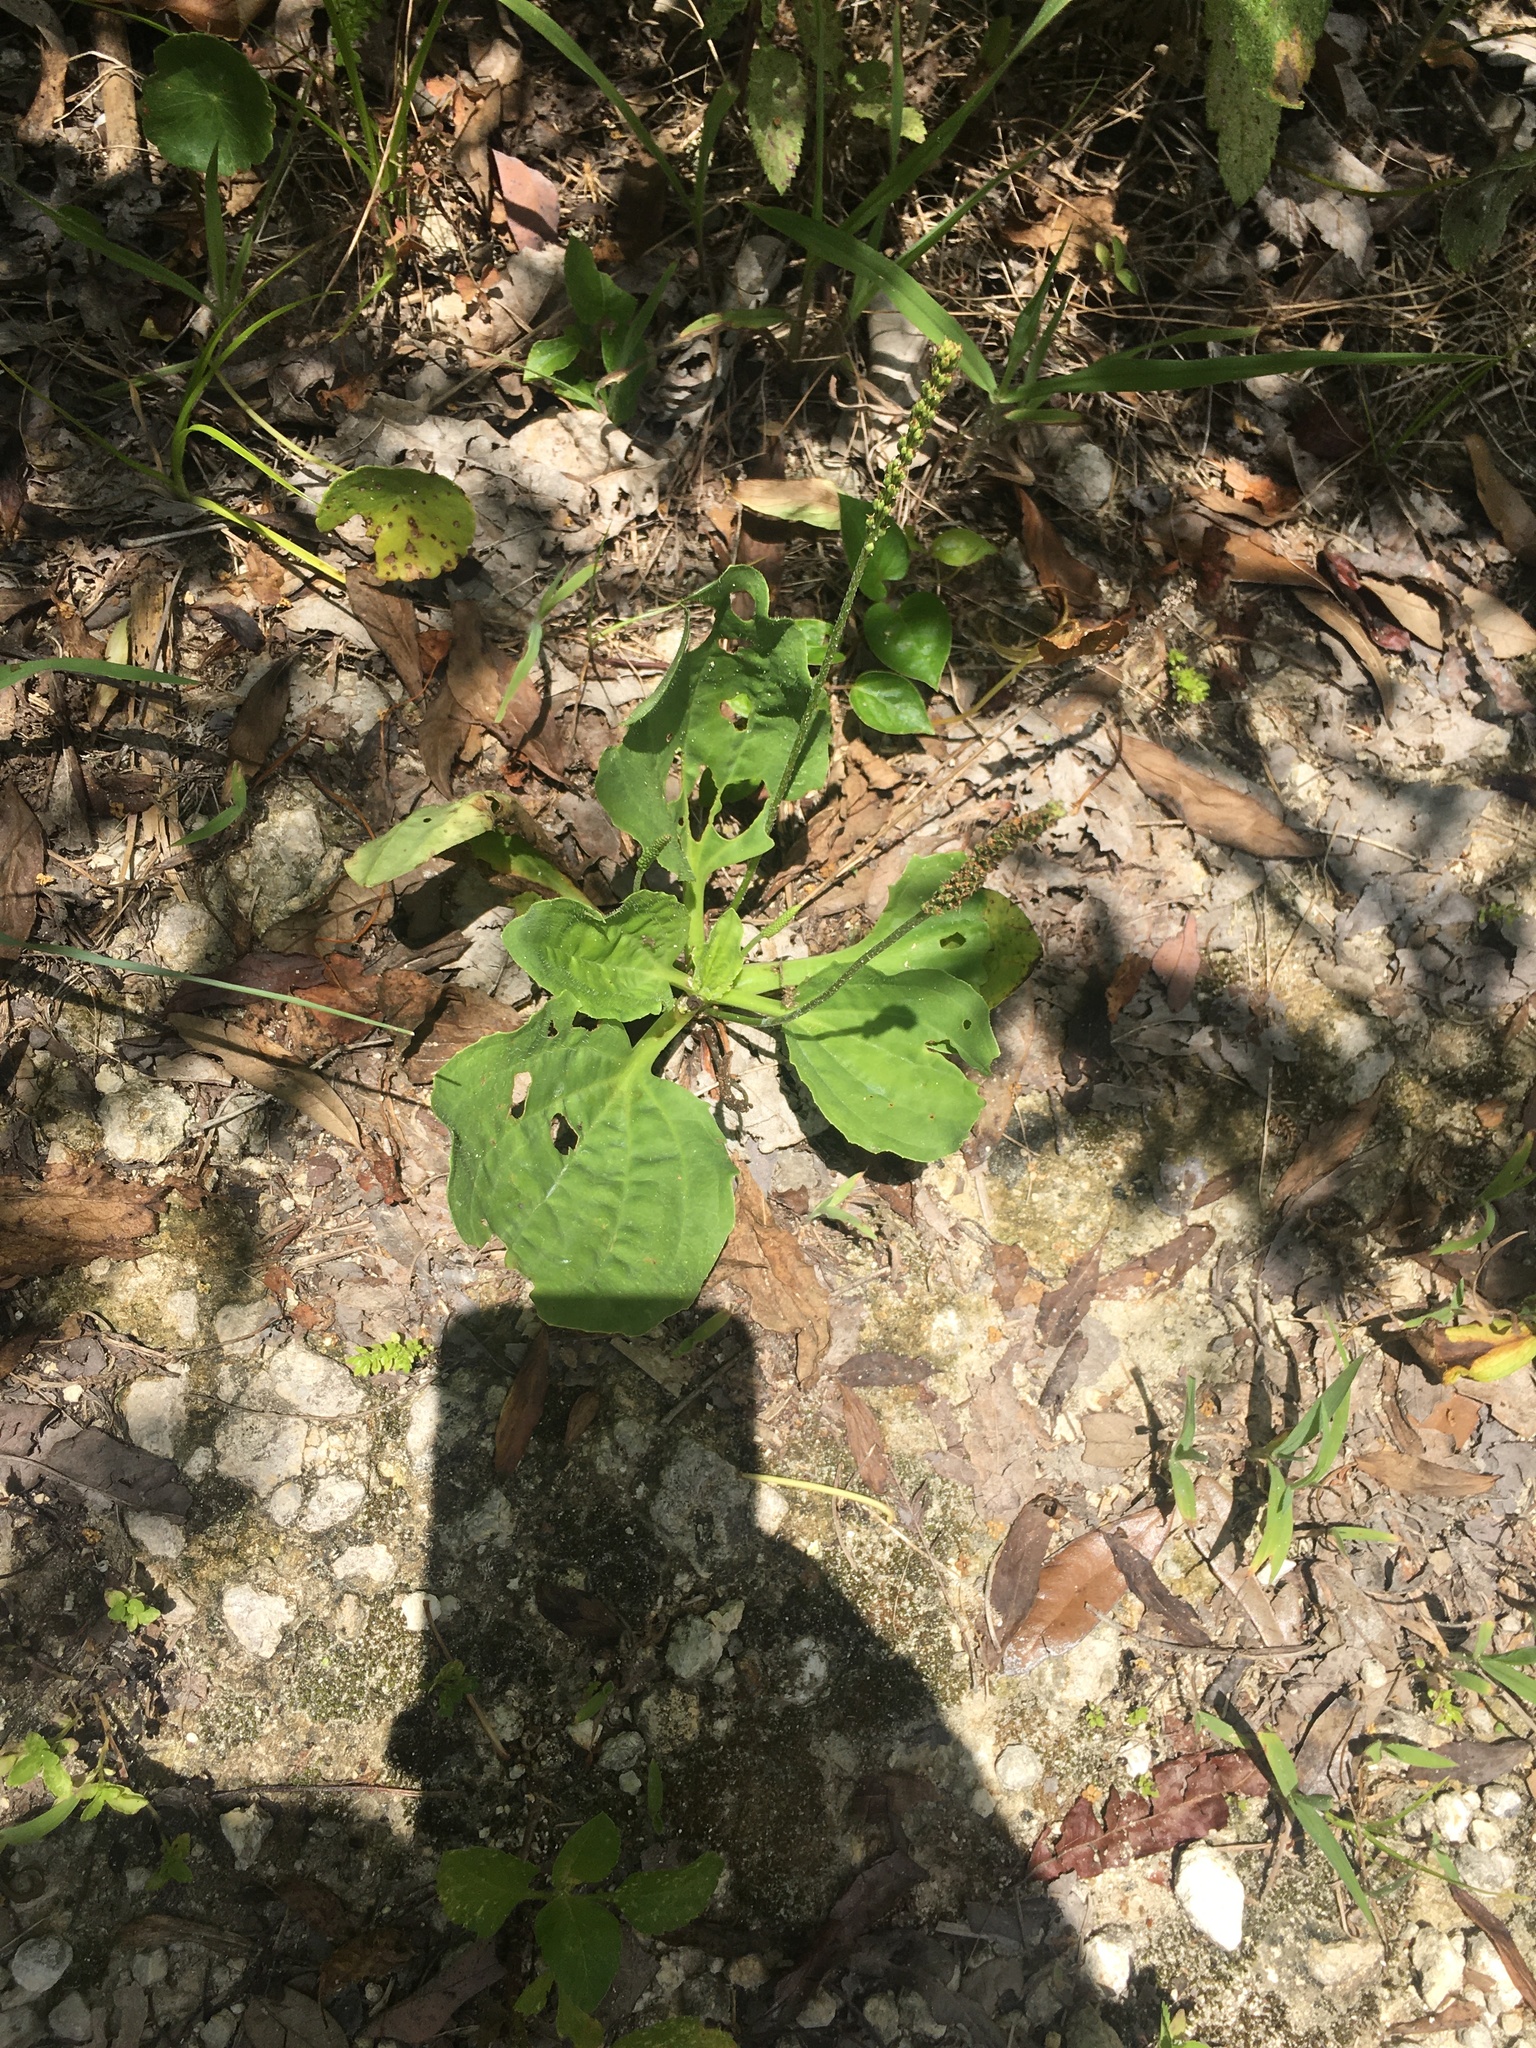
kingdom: Plantae
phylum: Tracheophyta
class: Magnoliopsida
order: Lamiales
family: Plantaginaceae
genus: Plantago
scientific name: Plantago major
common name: Common plantain
